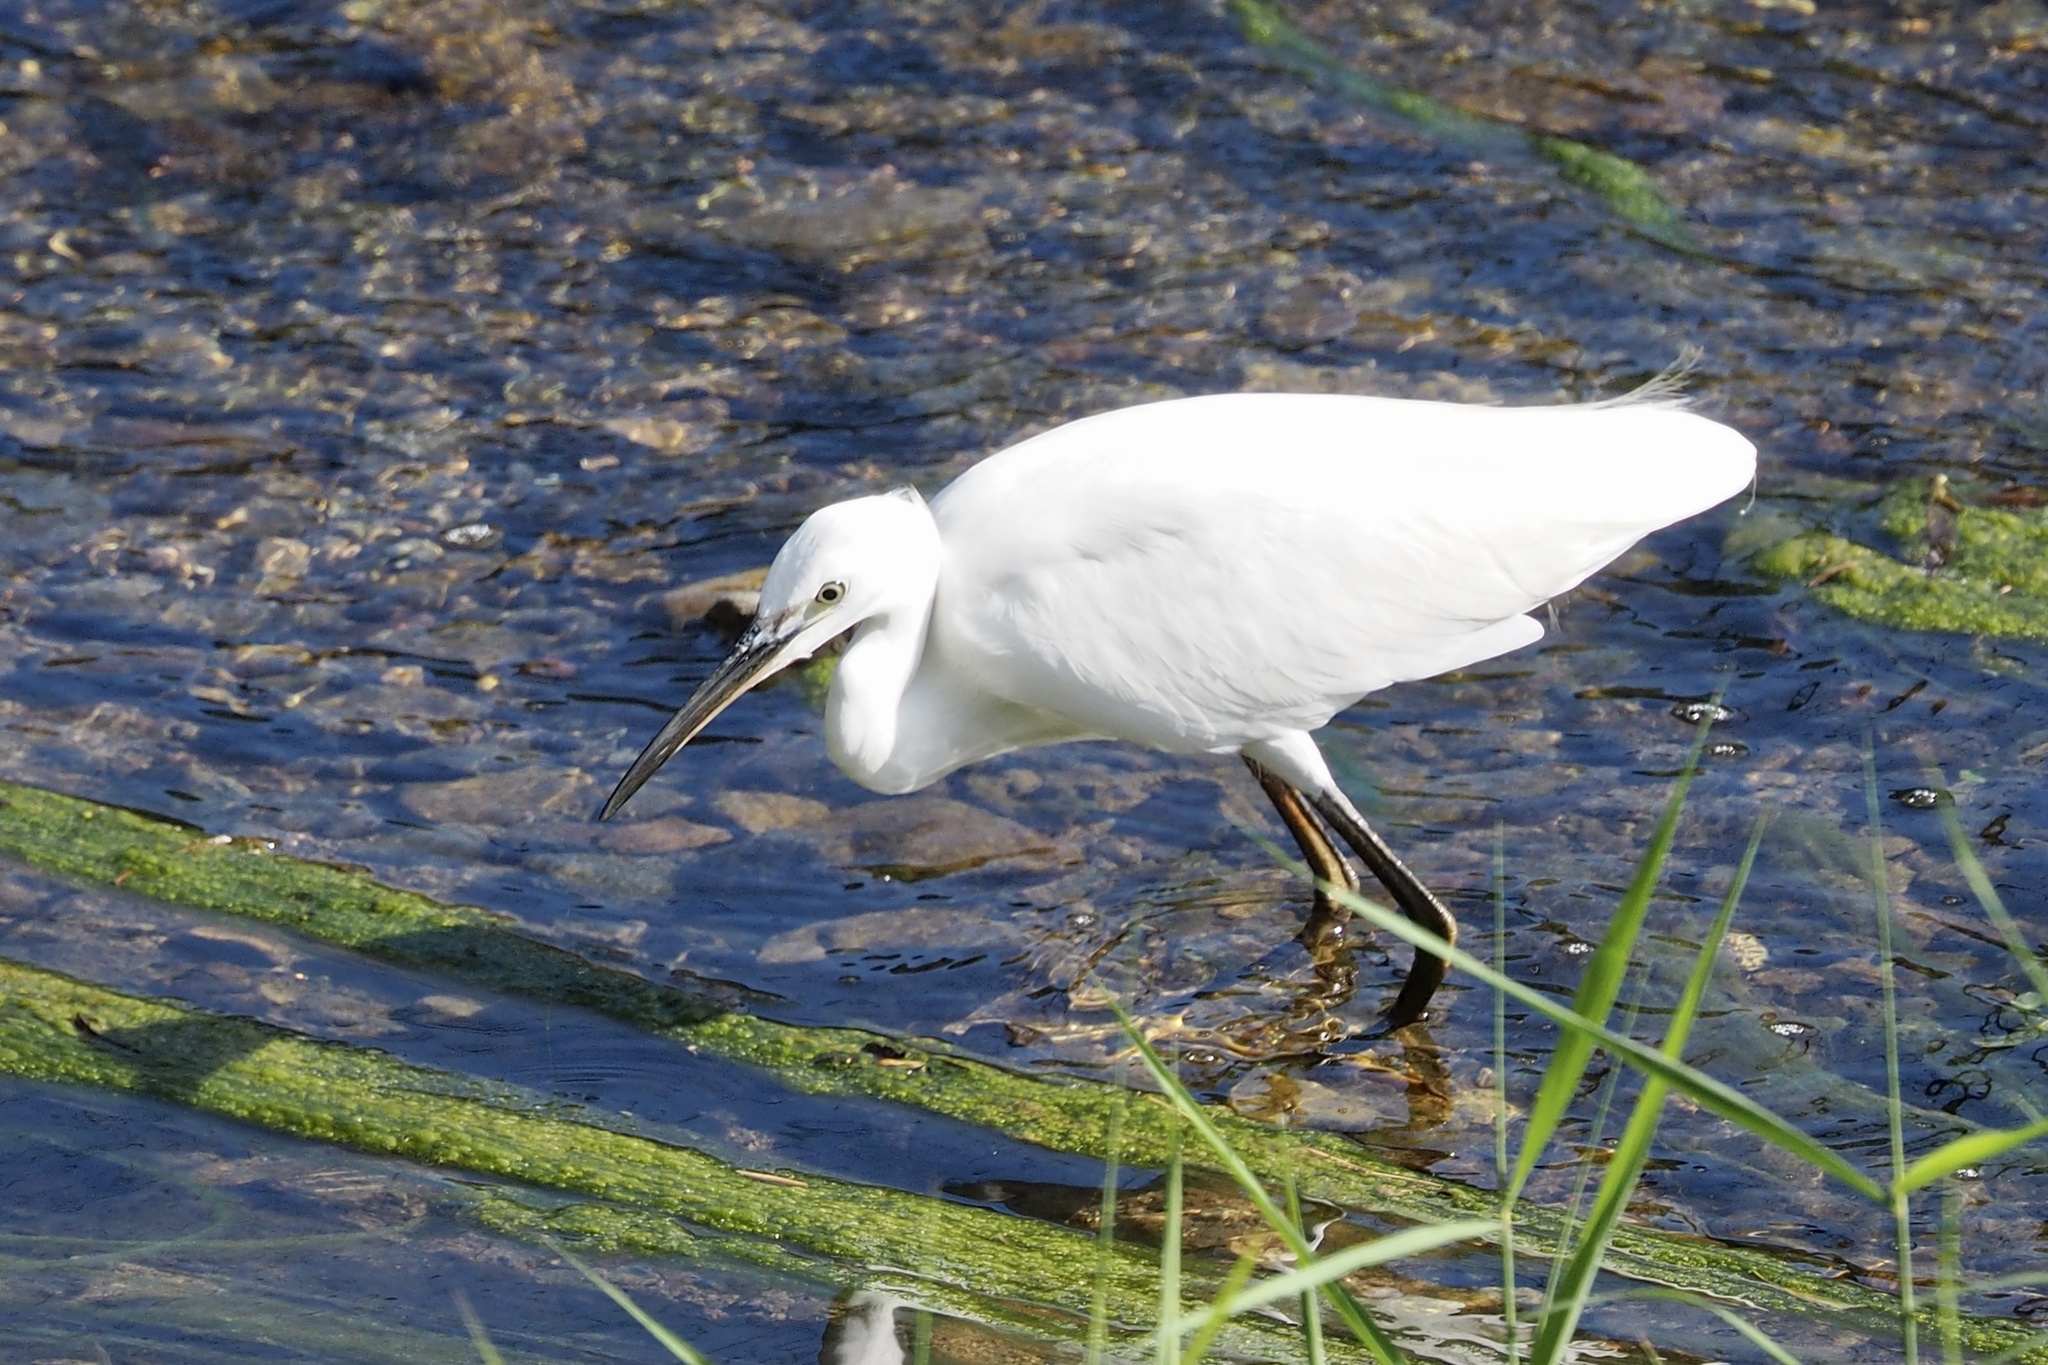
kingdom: Animalia
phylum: Chordata
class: Aves
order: Pelecaniformes
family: Ardeidae
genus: Egretta
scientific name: Egretta garzetta
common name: Little egret
